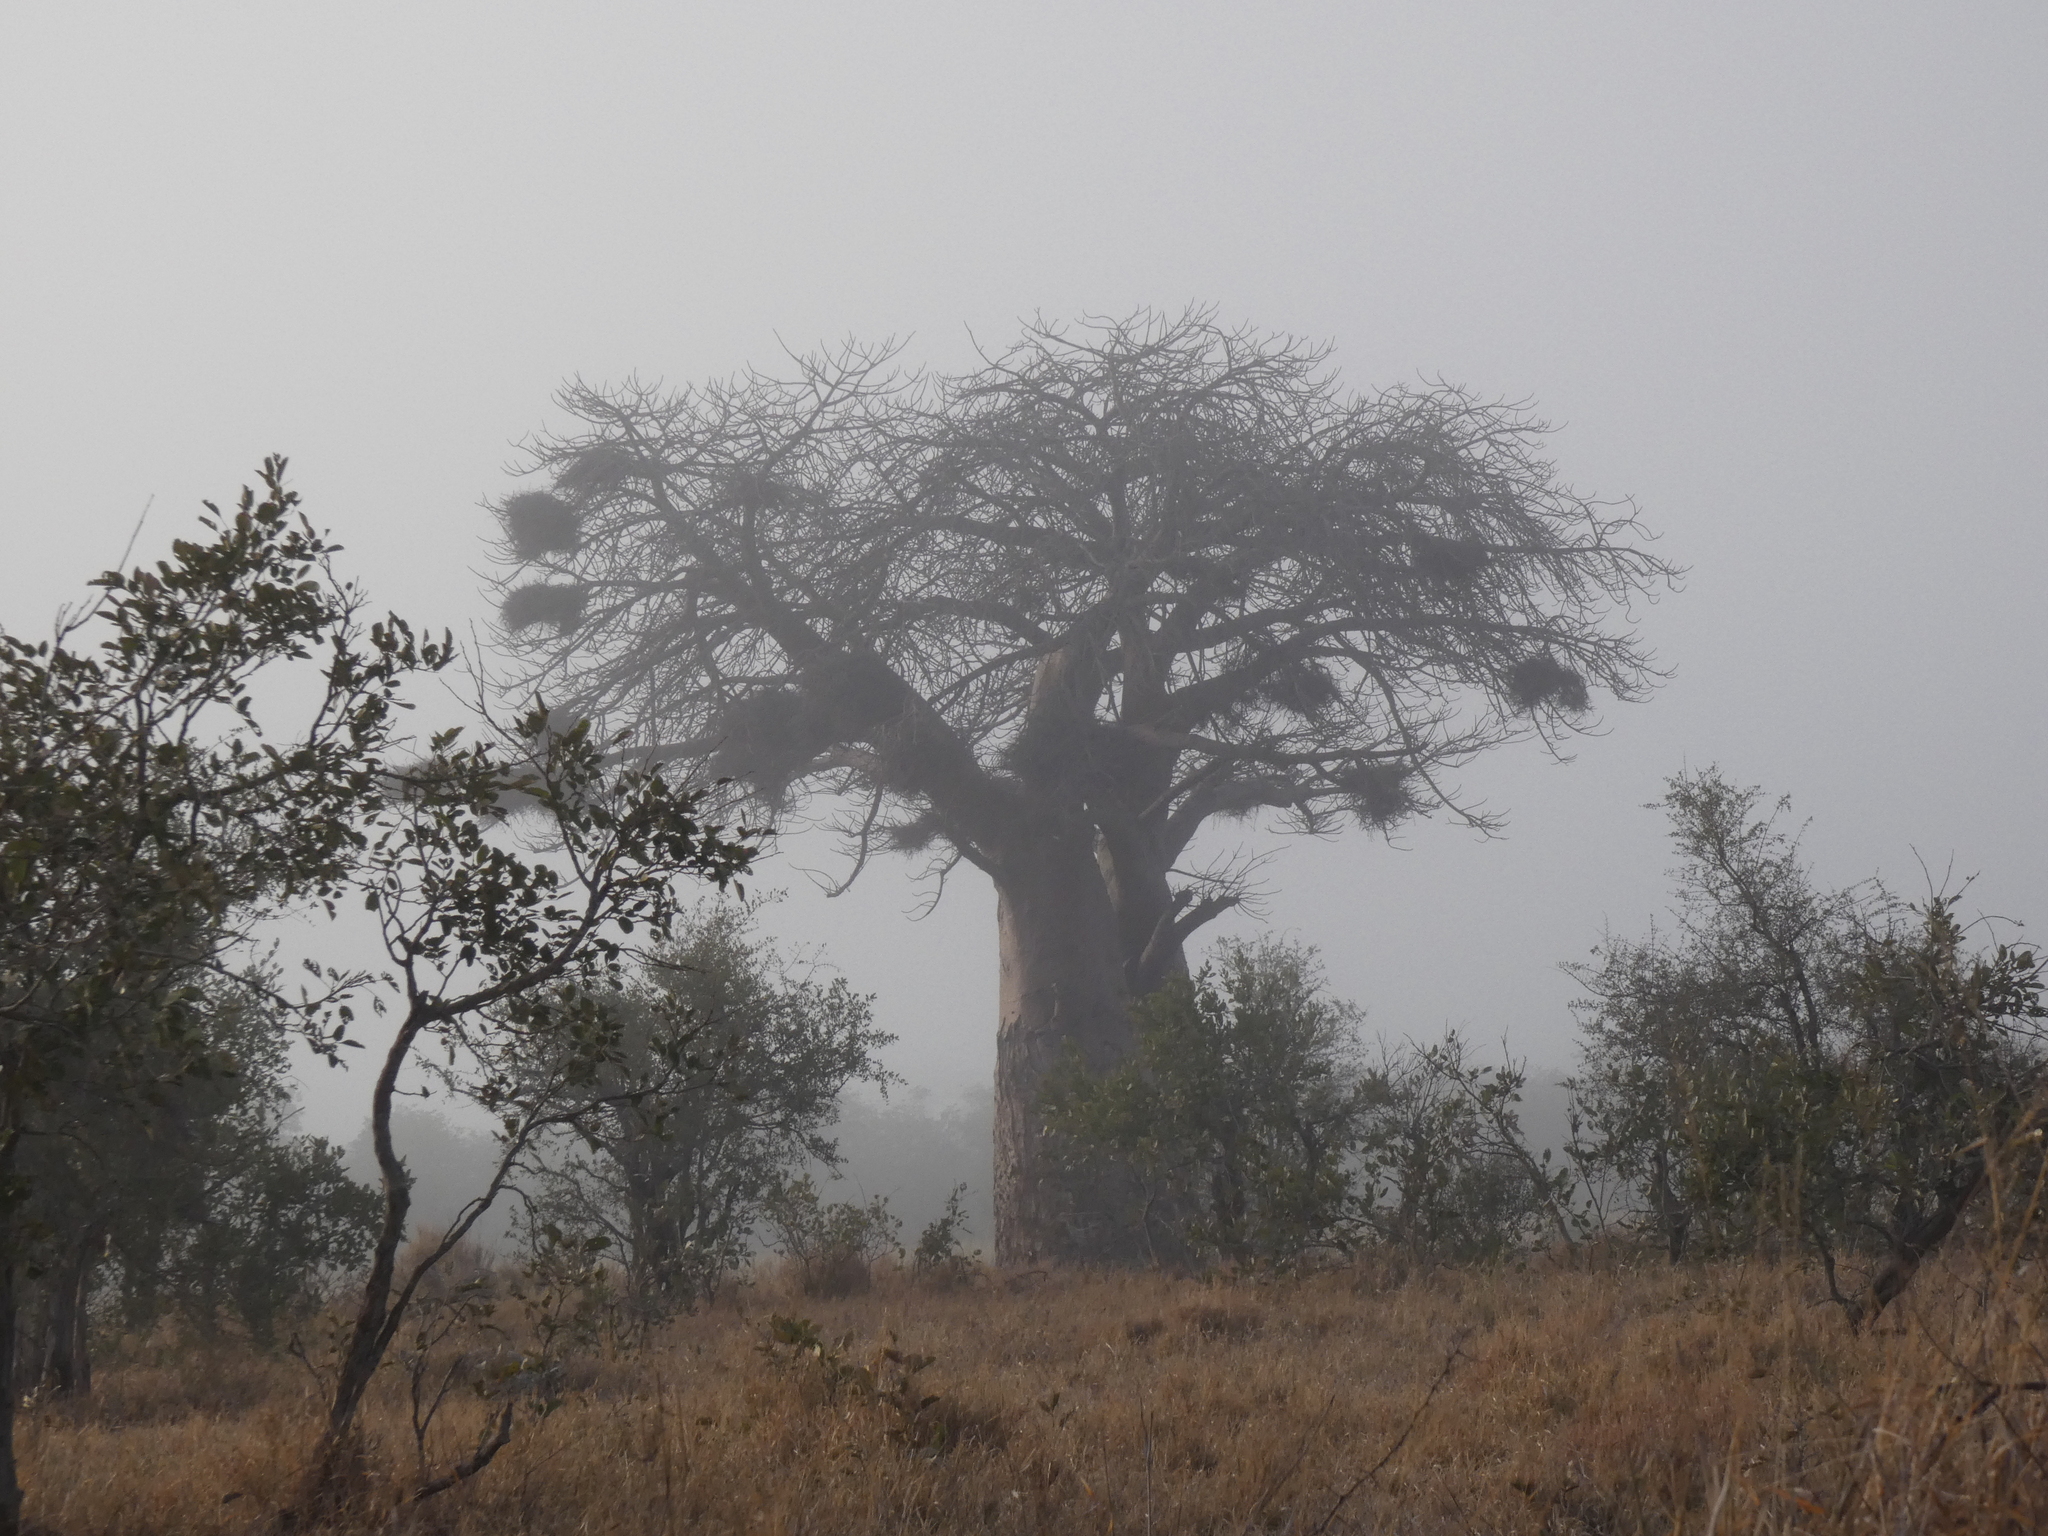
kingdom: Plantae
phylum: Tracheophyta
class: Magnoliopsida
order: Malvales
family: Malvaceae
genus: Adansonia
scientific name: Adansonia digitata
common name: Dead-rat-tree
